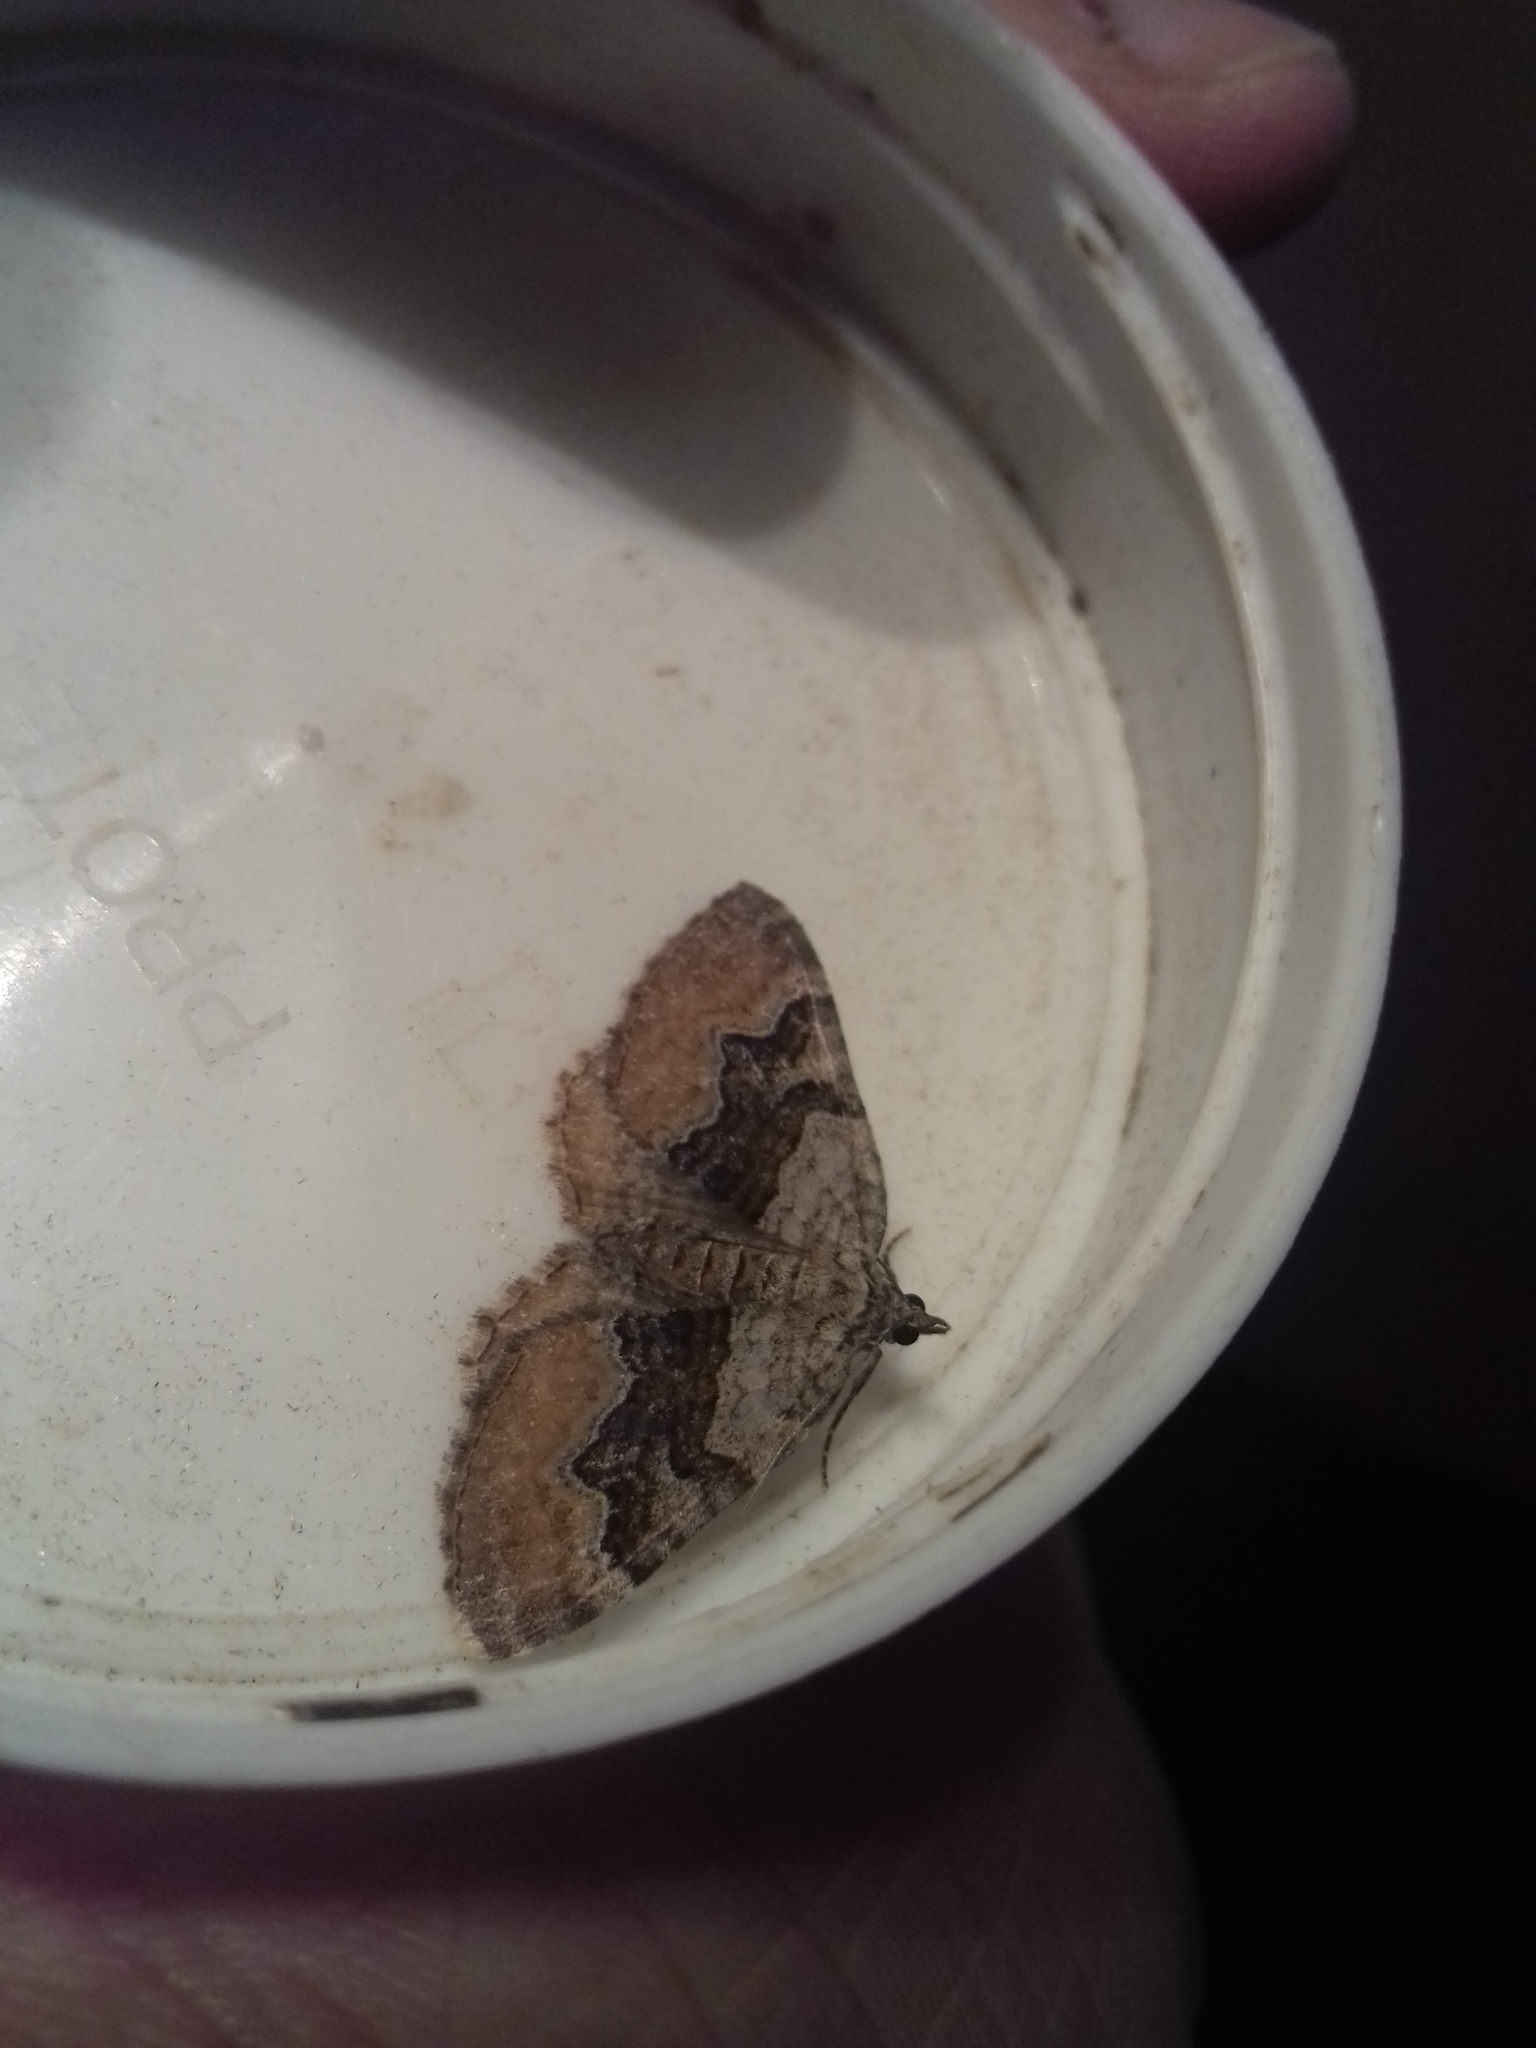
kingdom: Animalia
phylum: Arthropoda
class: Insecta
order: Lepidoptera
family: Geometridae
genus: Xanthorhoe
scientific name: Xanthorhoe quadrifasiata
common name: Large twin-spot carpet
